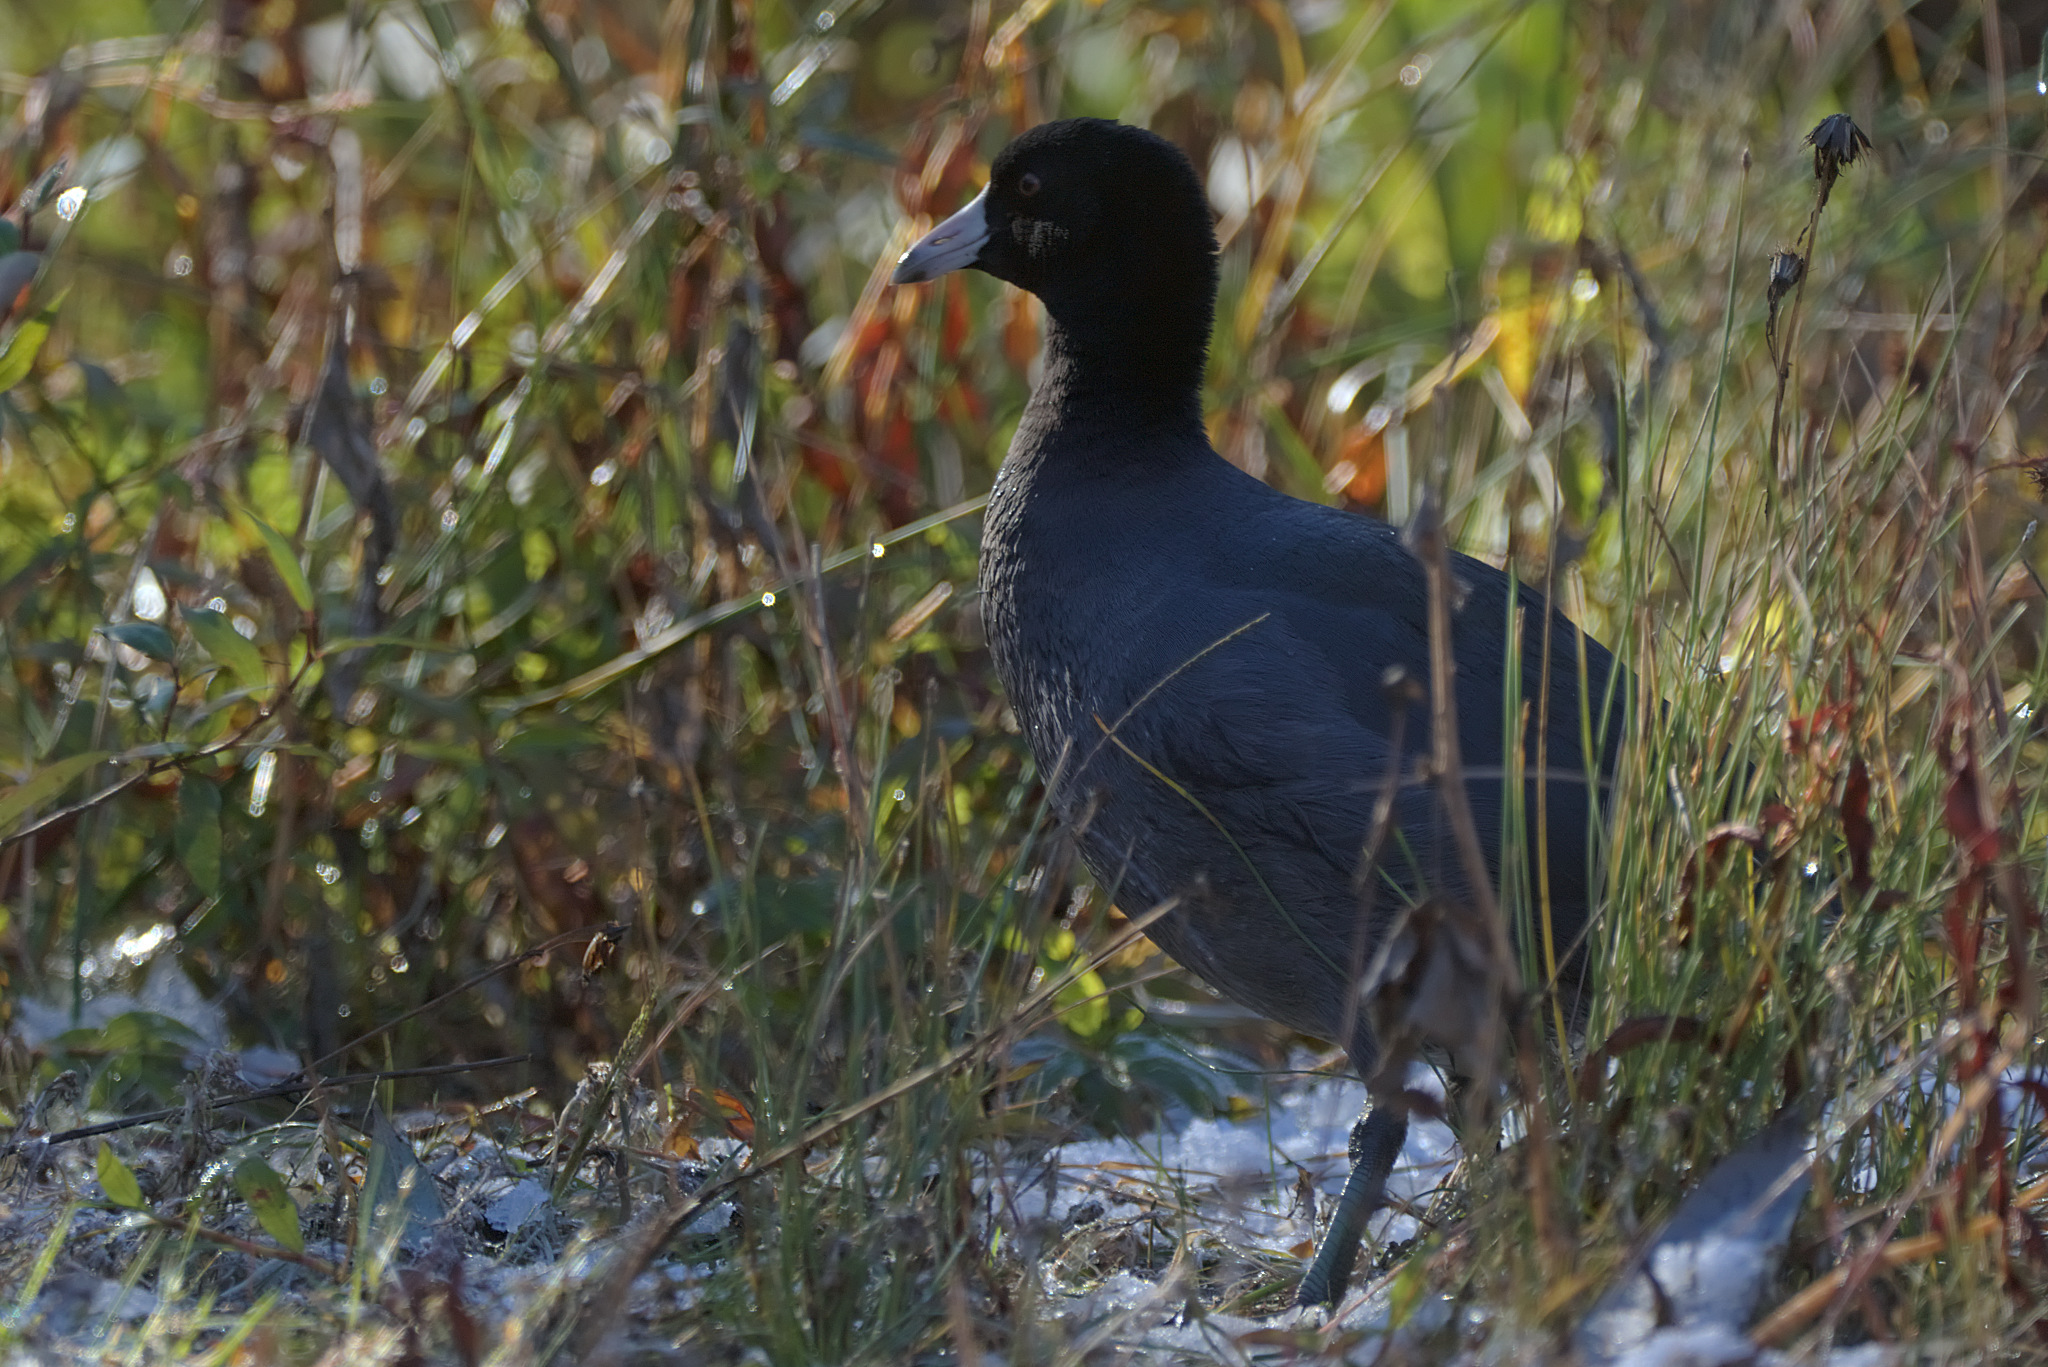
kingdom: Animalia
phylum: Chordata
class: Aves
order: Gruiformes
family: Rallidae
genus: Fulica
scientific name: Fulica americana
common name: American coot
